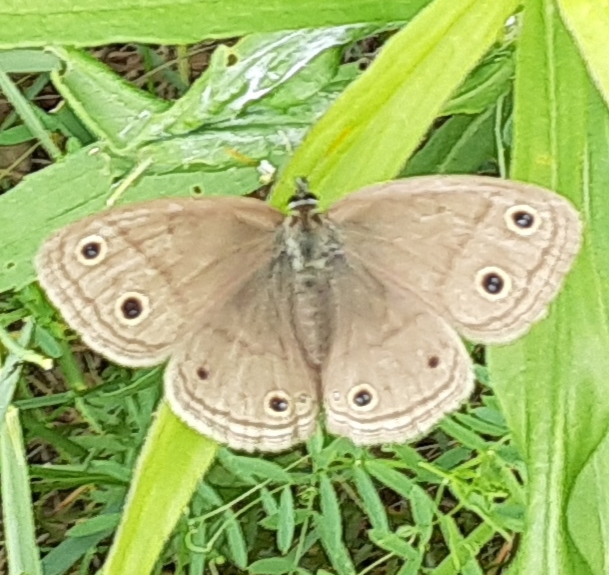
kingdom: Animalia
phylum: Arthropoda
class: Insecta
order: Lepidoptera
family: Nymphalidae
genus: Euptychia
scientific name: Euptychia cymela
